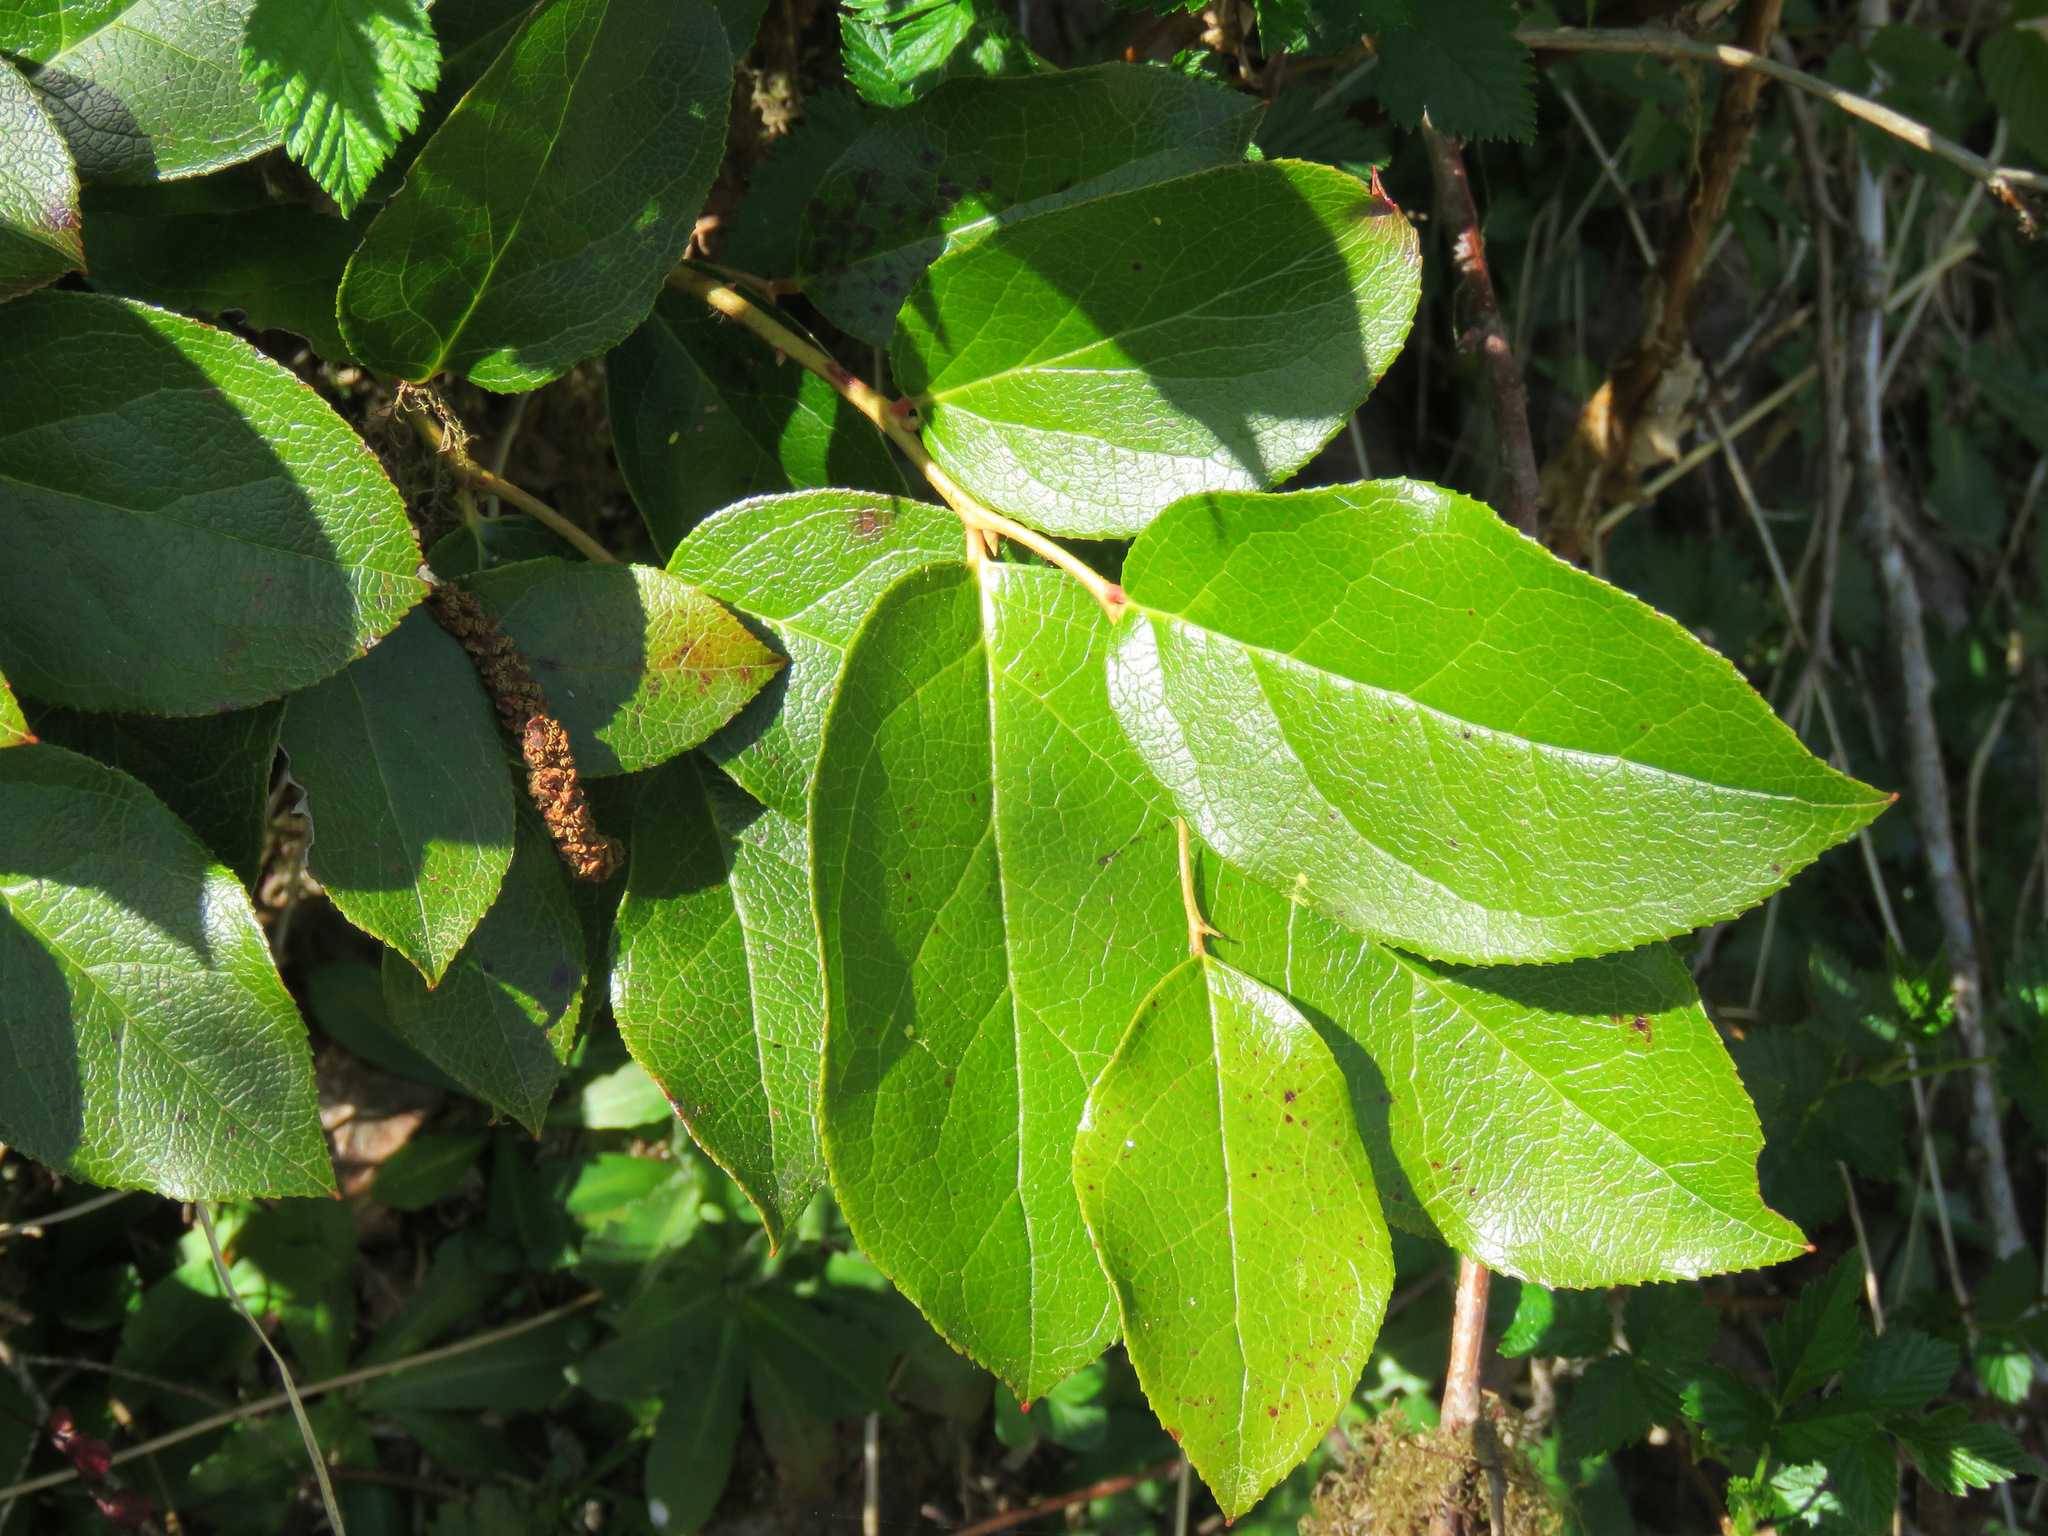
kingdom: Plantae
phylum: Tracheophyta
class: Magnoliopsida
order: Ericales
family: Ericaceae
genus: Gaultheria
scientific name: Gaultheria shallon
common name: Shallon
